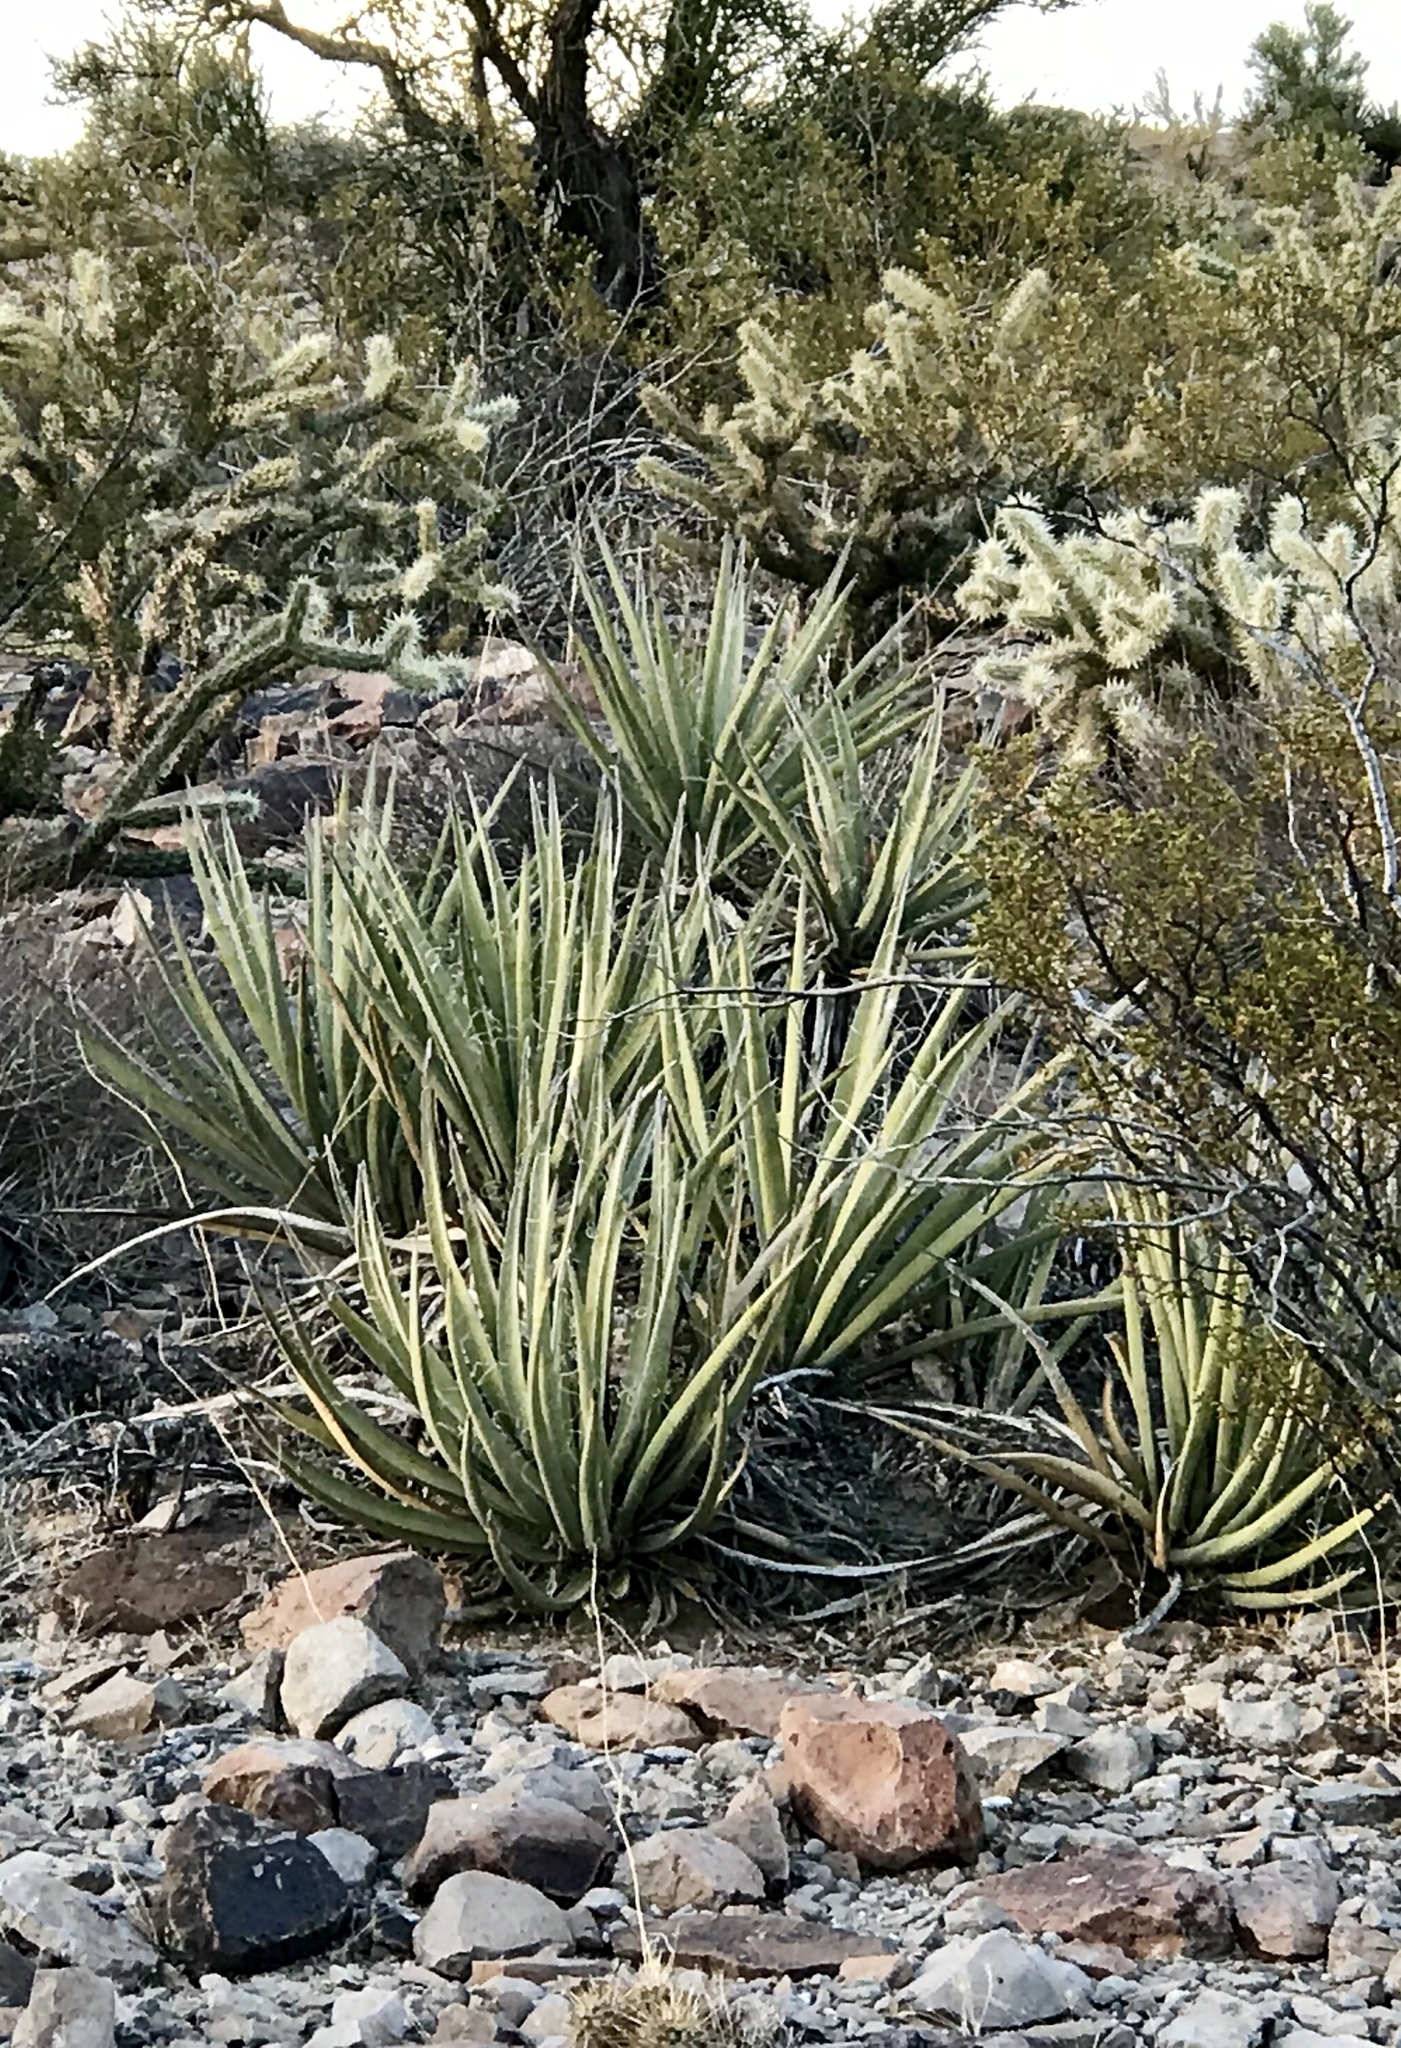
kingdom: Plantae
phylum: Tracheophyta
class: Liliopsida
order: Asparagales
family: Asparagaceae
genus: Yucca
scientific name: Yucca baccata
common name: Banana yucca
